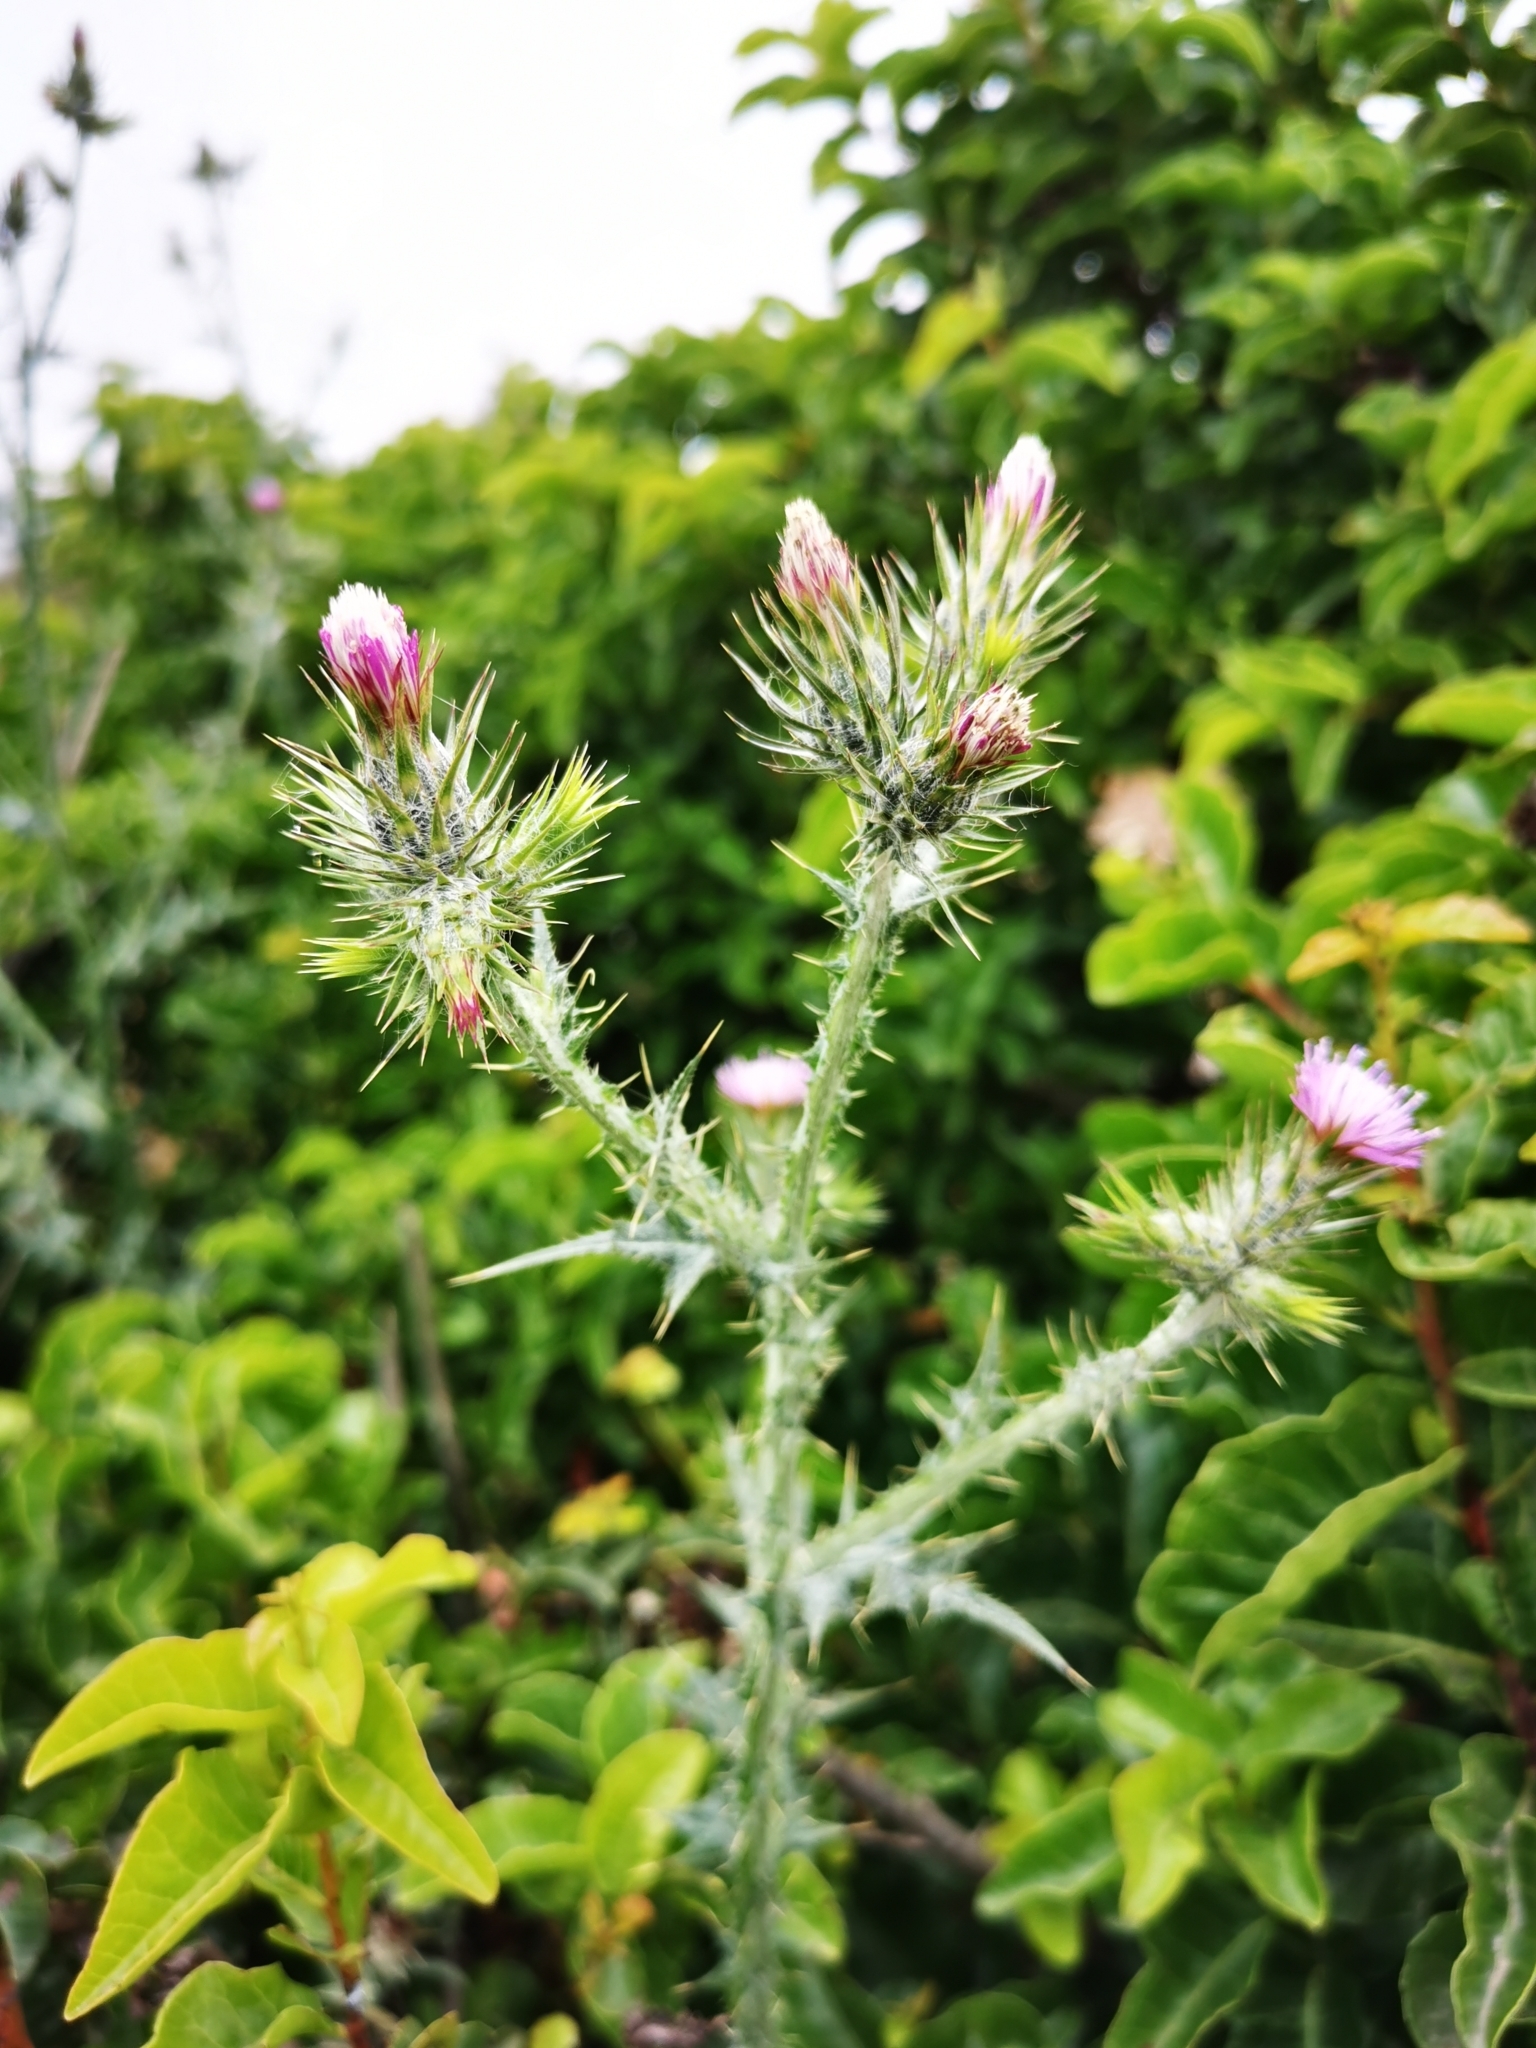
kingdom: Plantae
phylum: Tracheophyta
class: Magnoliopsida
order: Asterales
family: Asteraceae
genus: Carduus
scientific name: Carduus pycnocephalus
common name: Plymouth thistle
